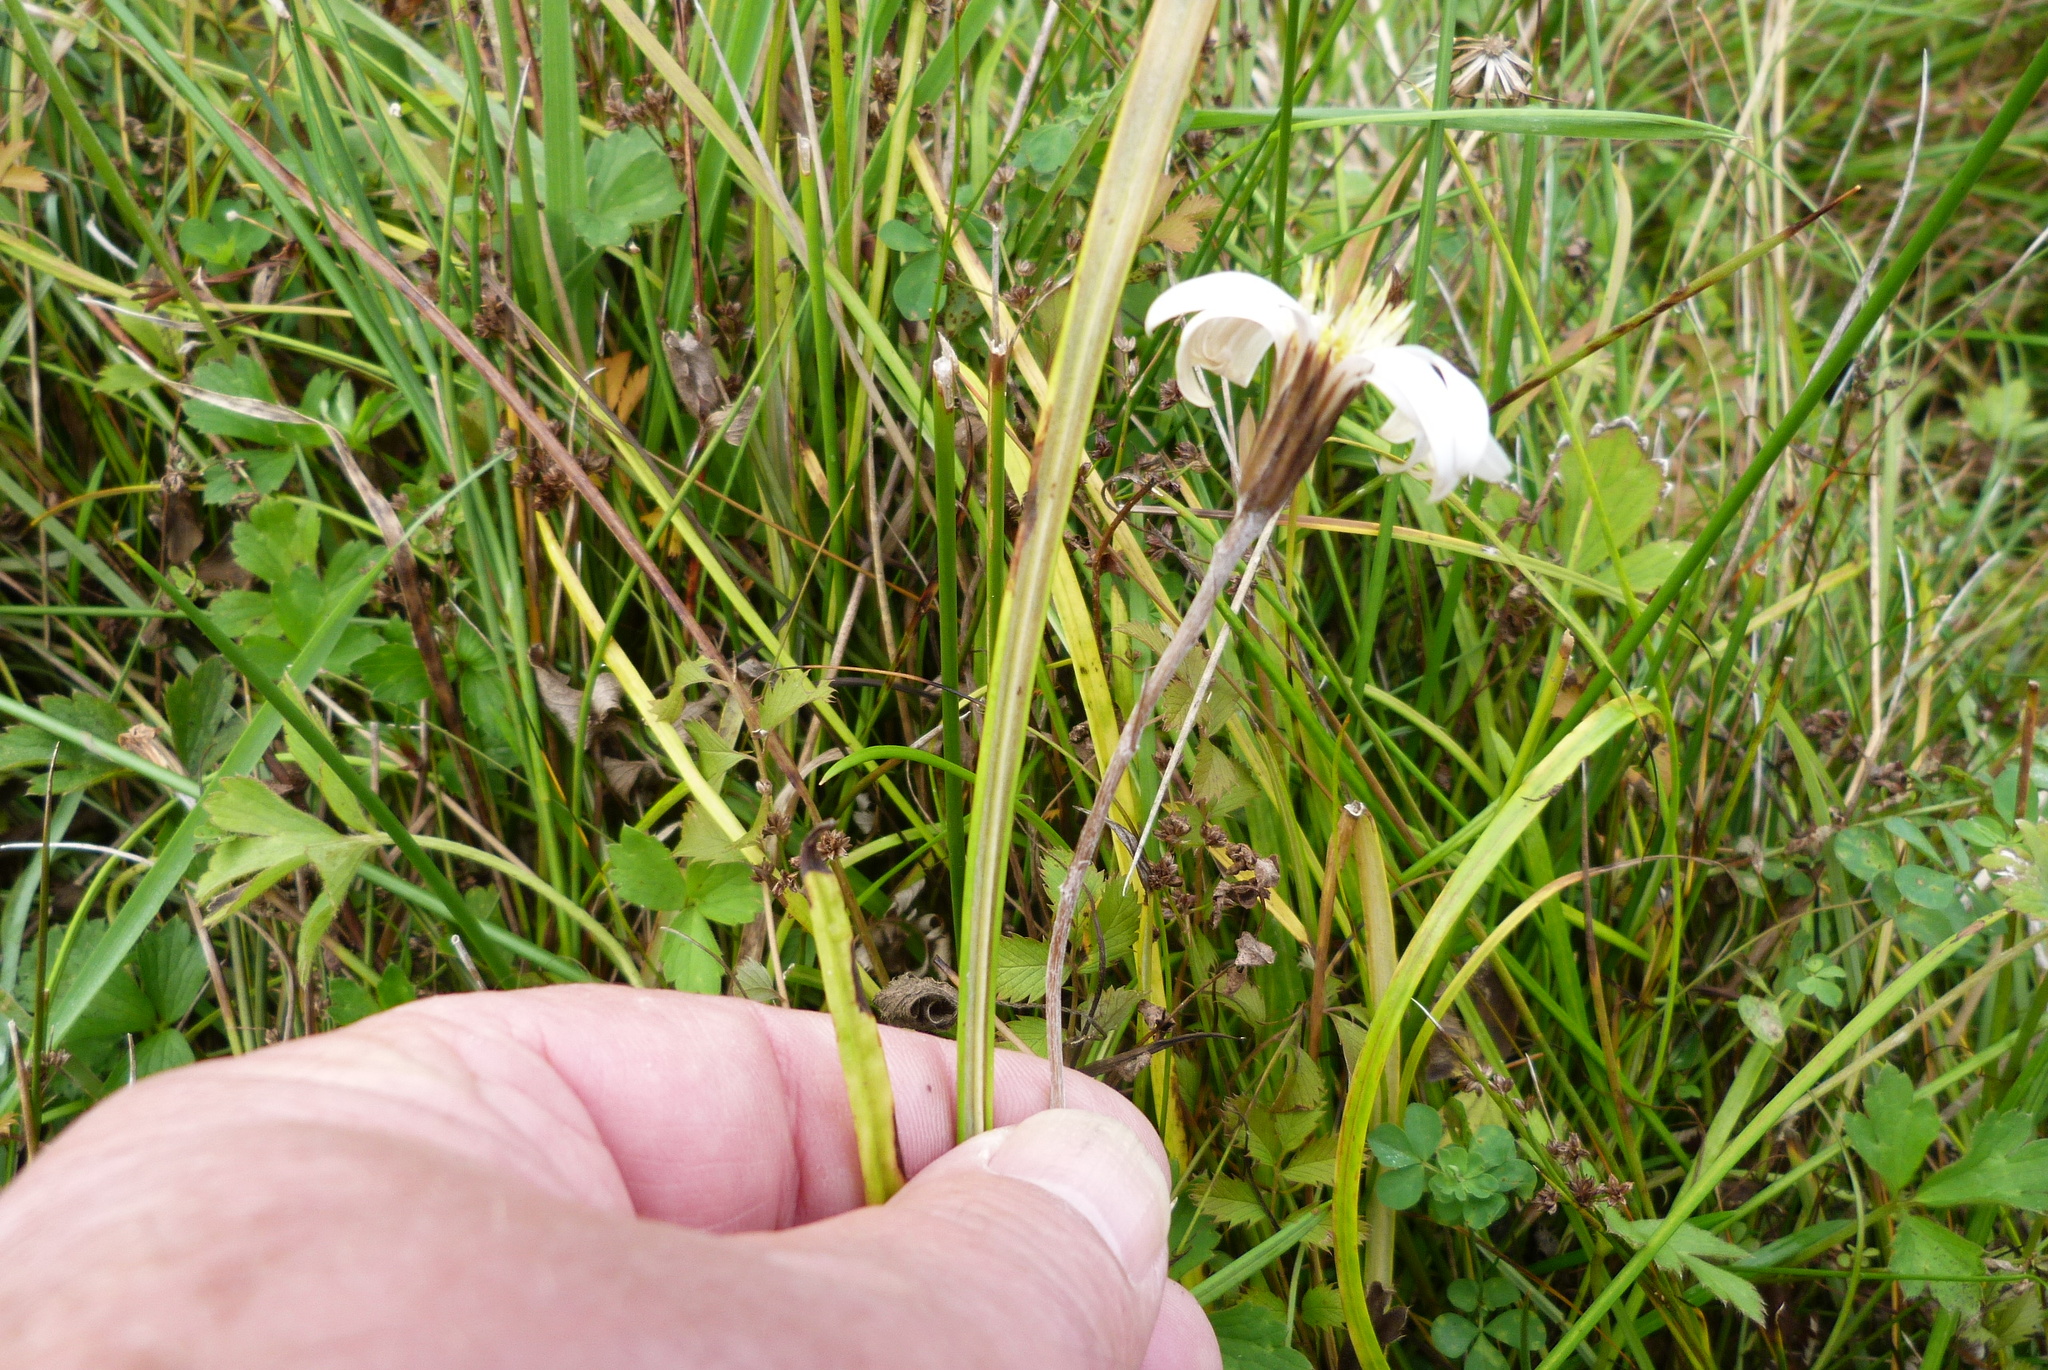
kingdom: Plantae
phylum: Tracheophyta
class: Magnoliopsida
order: Asterales
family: Asteraceae
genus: Celmisia
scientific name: Celmisia gracilenta
